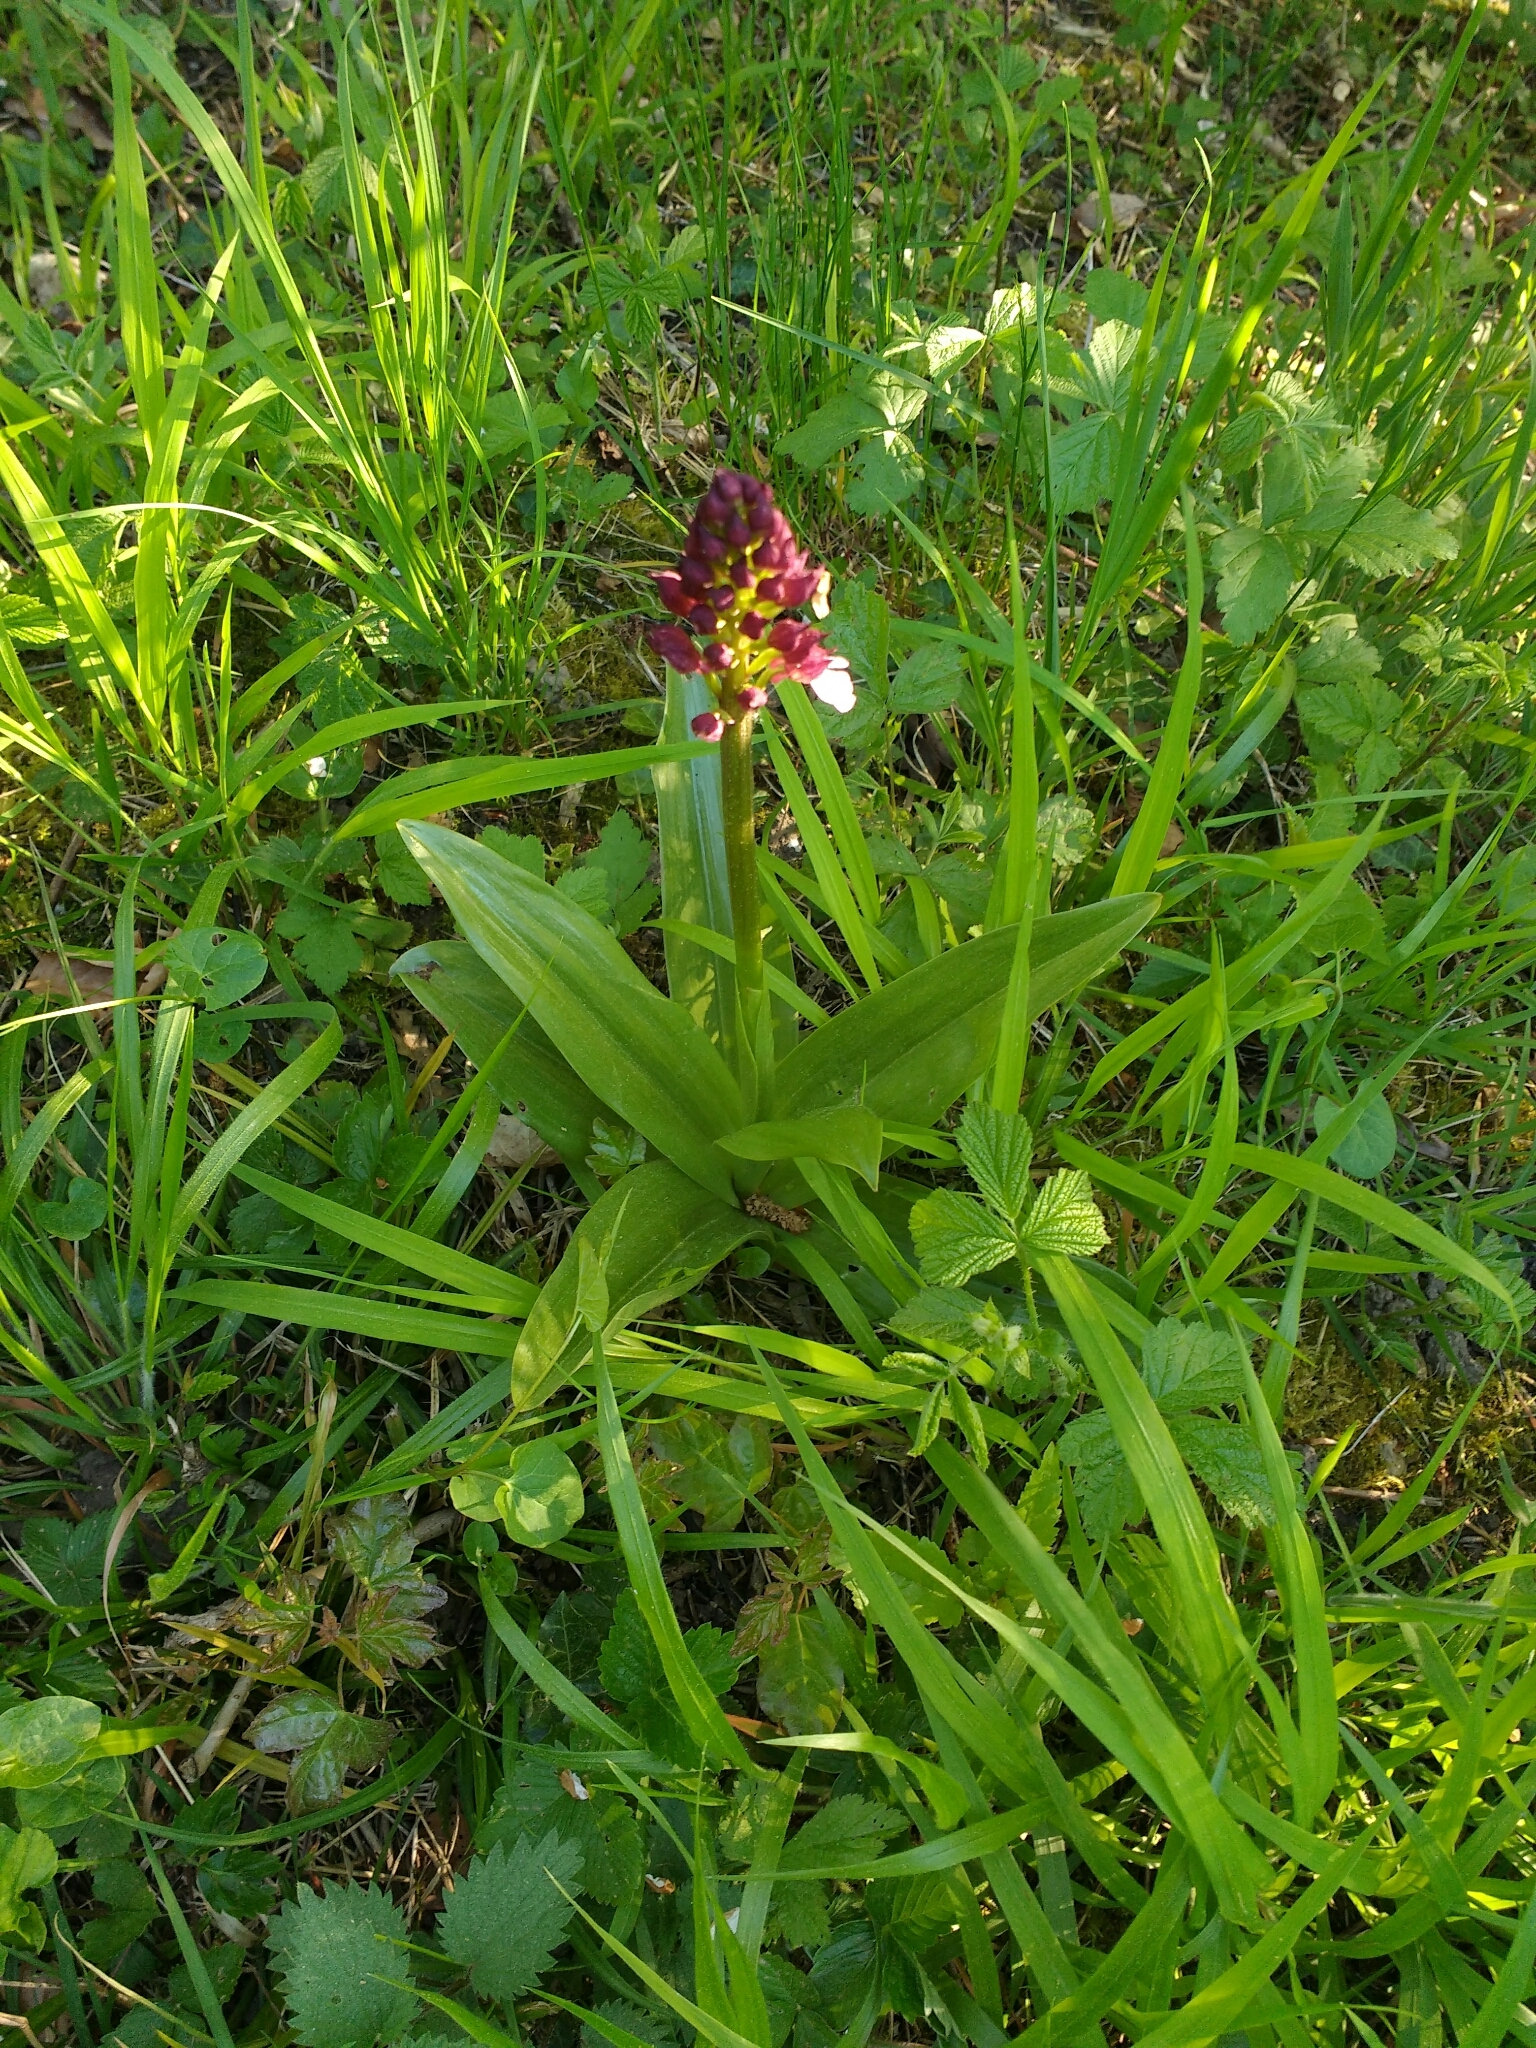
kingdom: Plantae
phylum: Tracheophyta
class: Liliopsida
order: Asparagales
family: Orchidaceae
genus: Orchis
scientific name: Orchis purpurea
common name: Lady orchid
